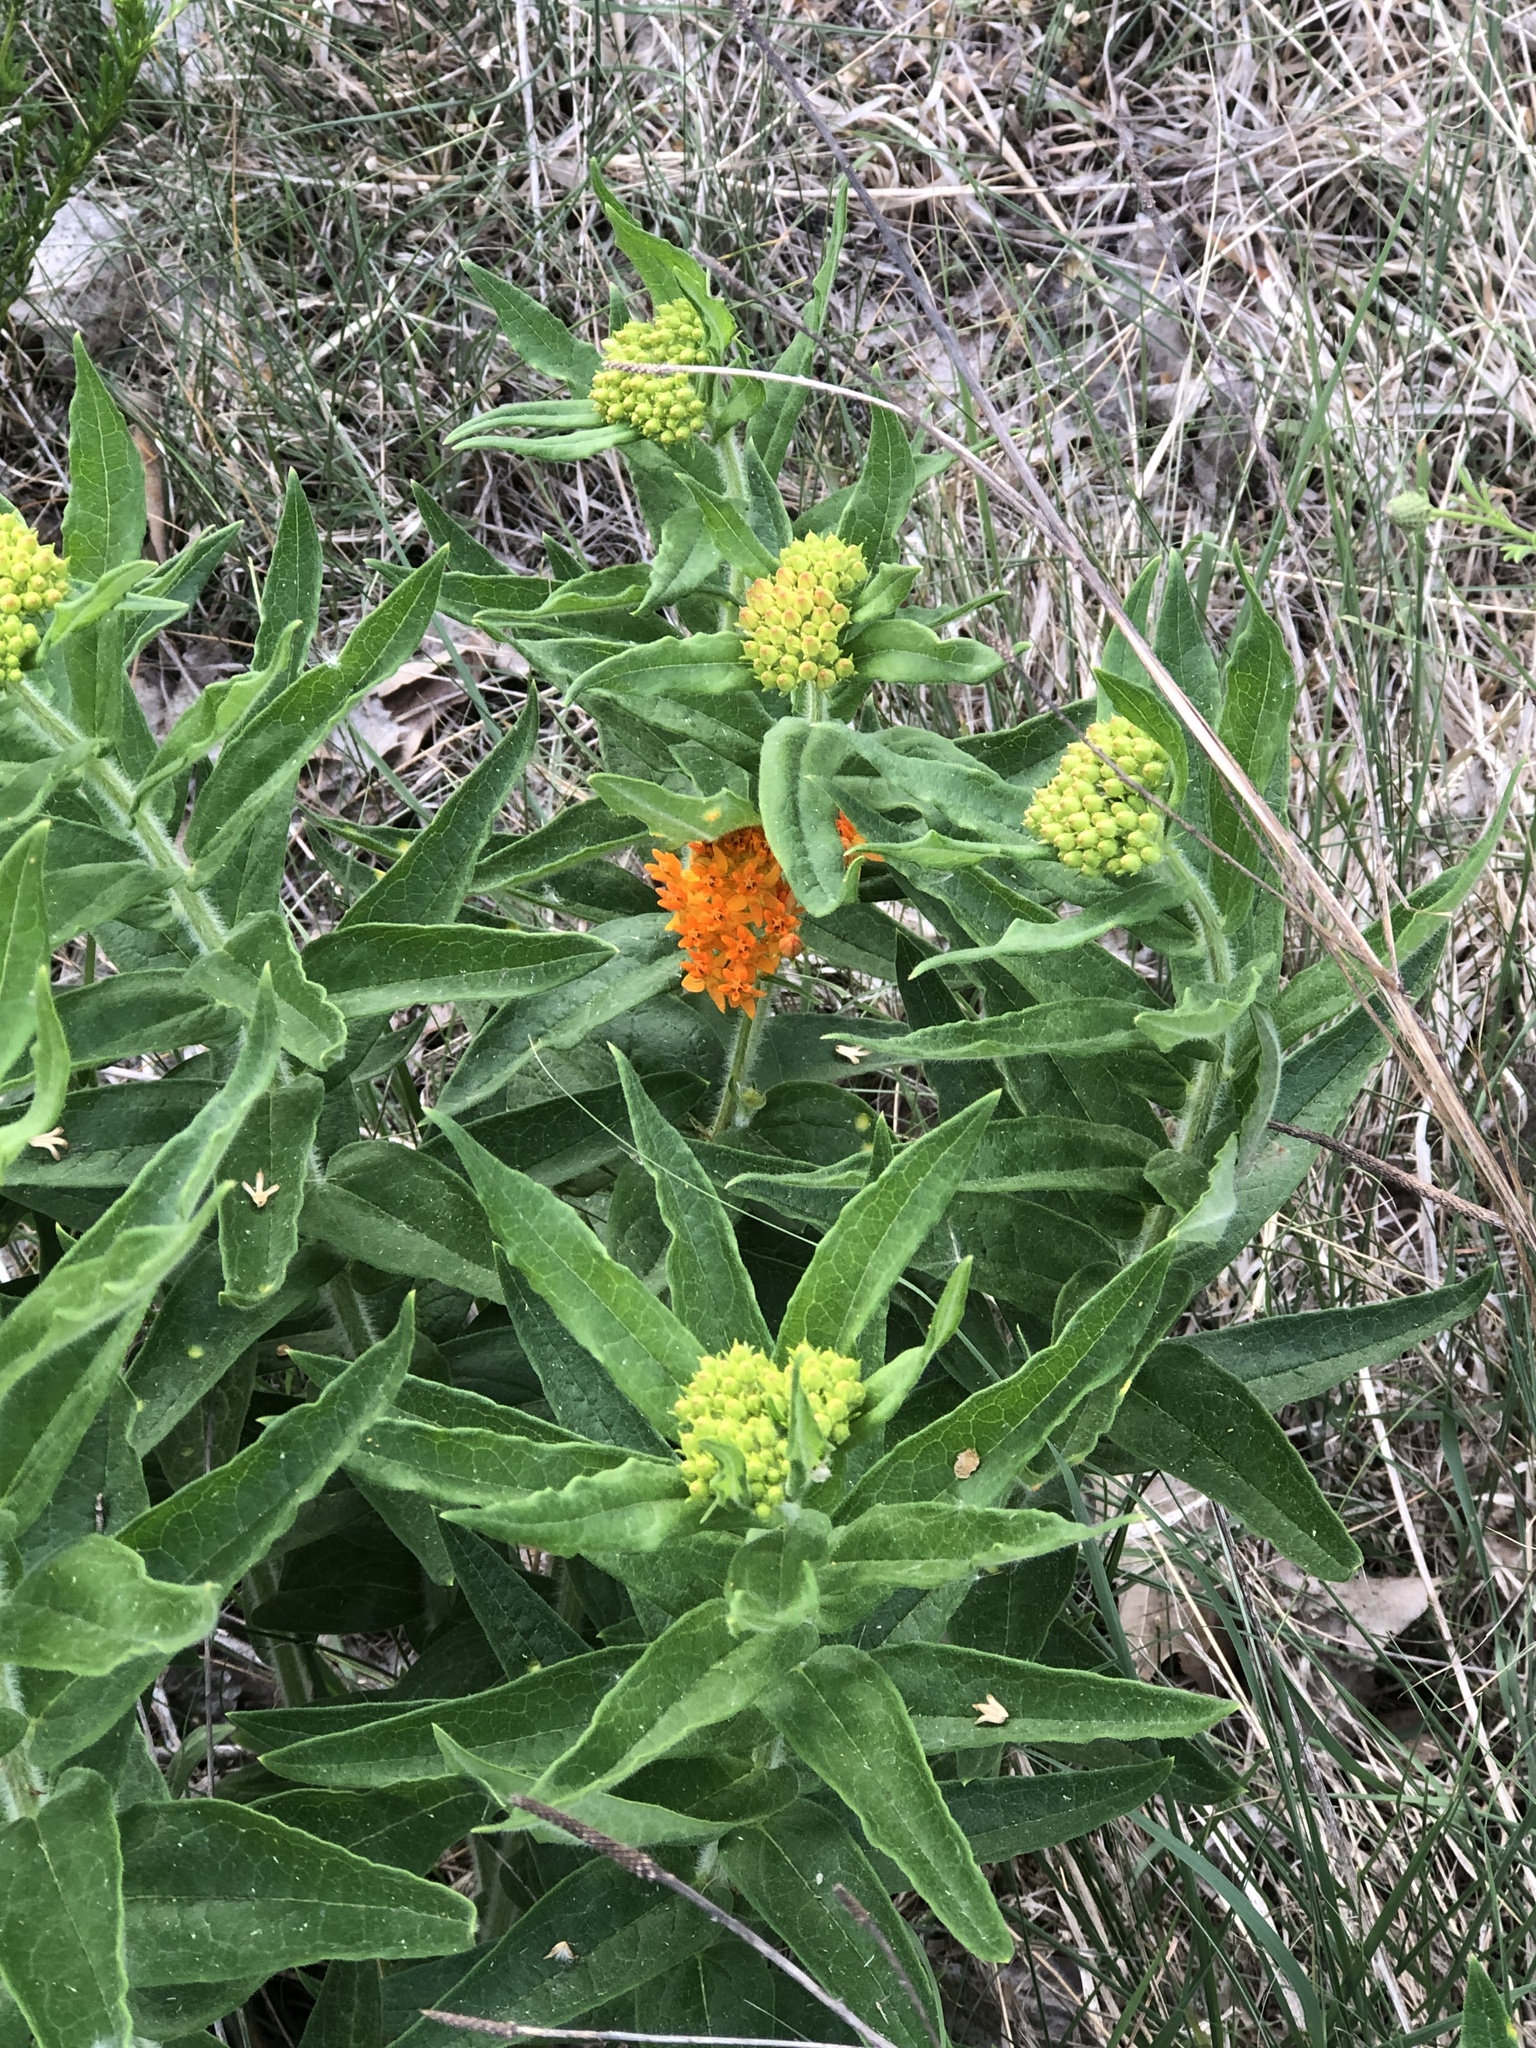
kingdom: Plantae
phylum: Tracheophyta
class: Magnoliopsida
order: Gentianales
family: Apocynaceae
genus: Asclepias
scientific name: Asclepias tuberosa
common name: Butterfly milkweed
